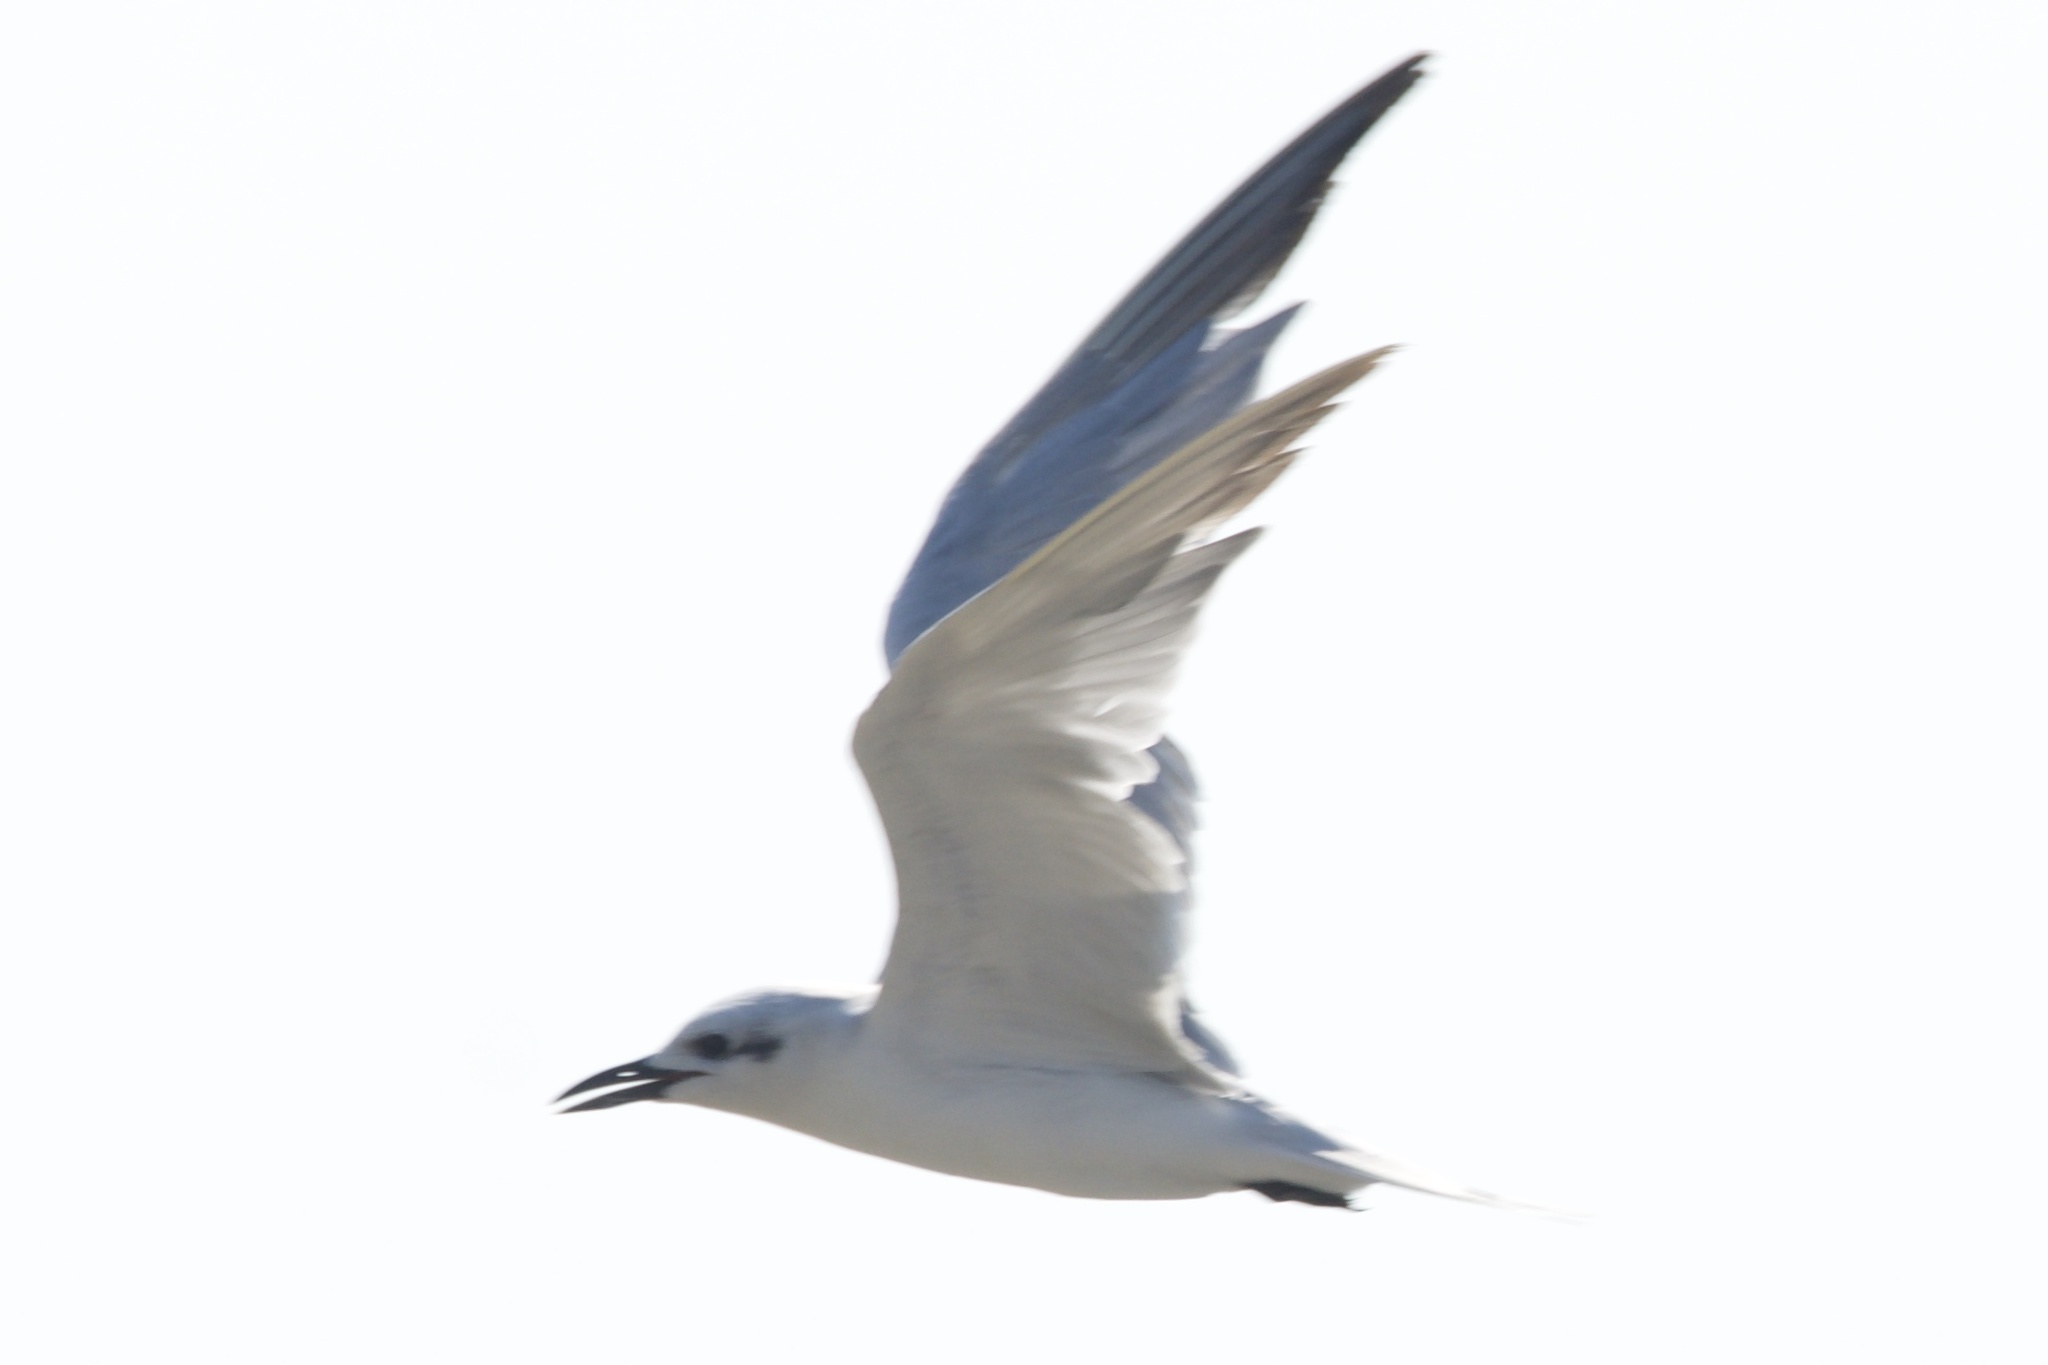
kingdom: Animalia
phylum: Chordata
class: Aves
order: Charadriiformes
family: Laridae
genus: Sterna
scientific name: Sterna forsteri
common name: Forster's tern
